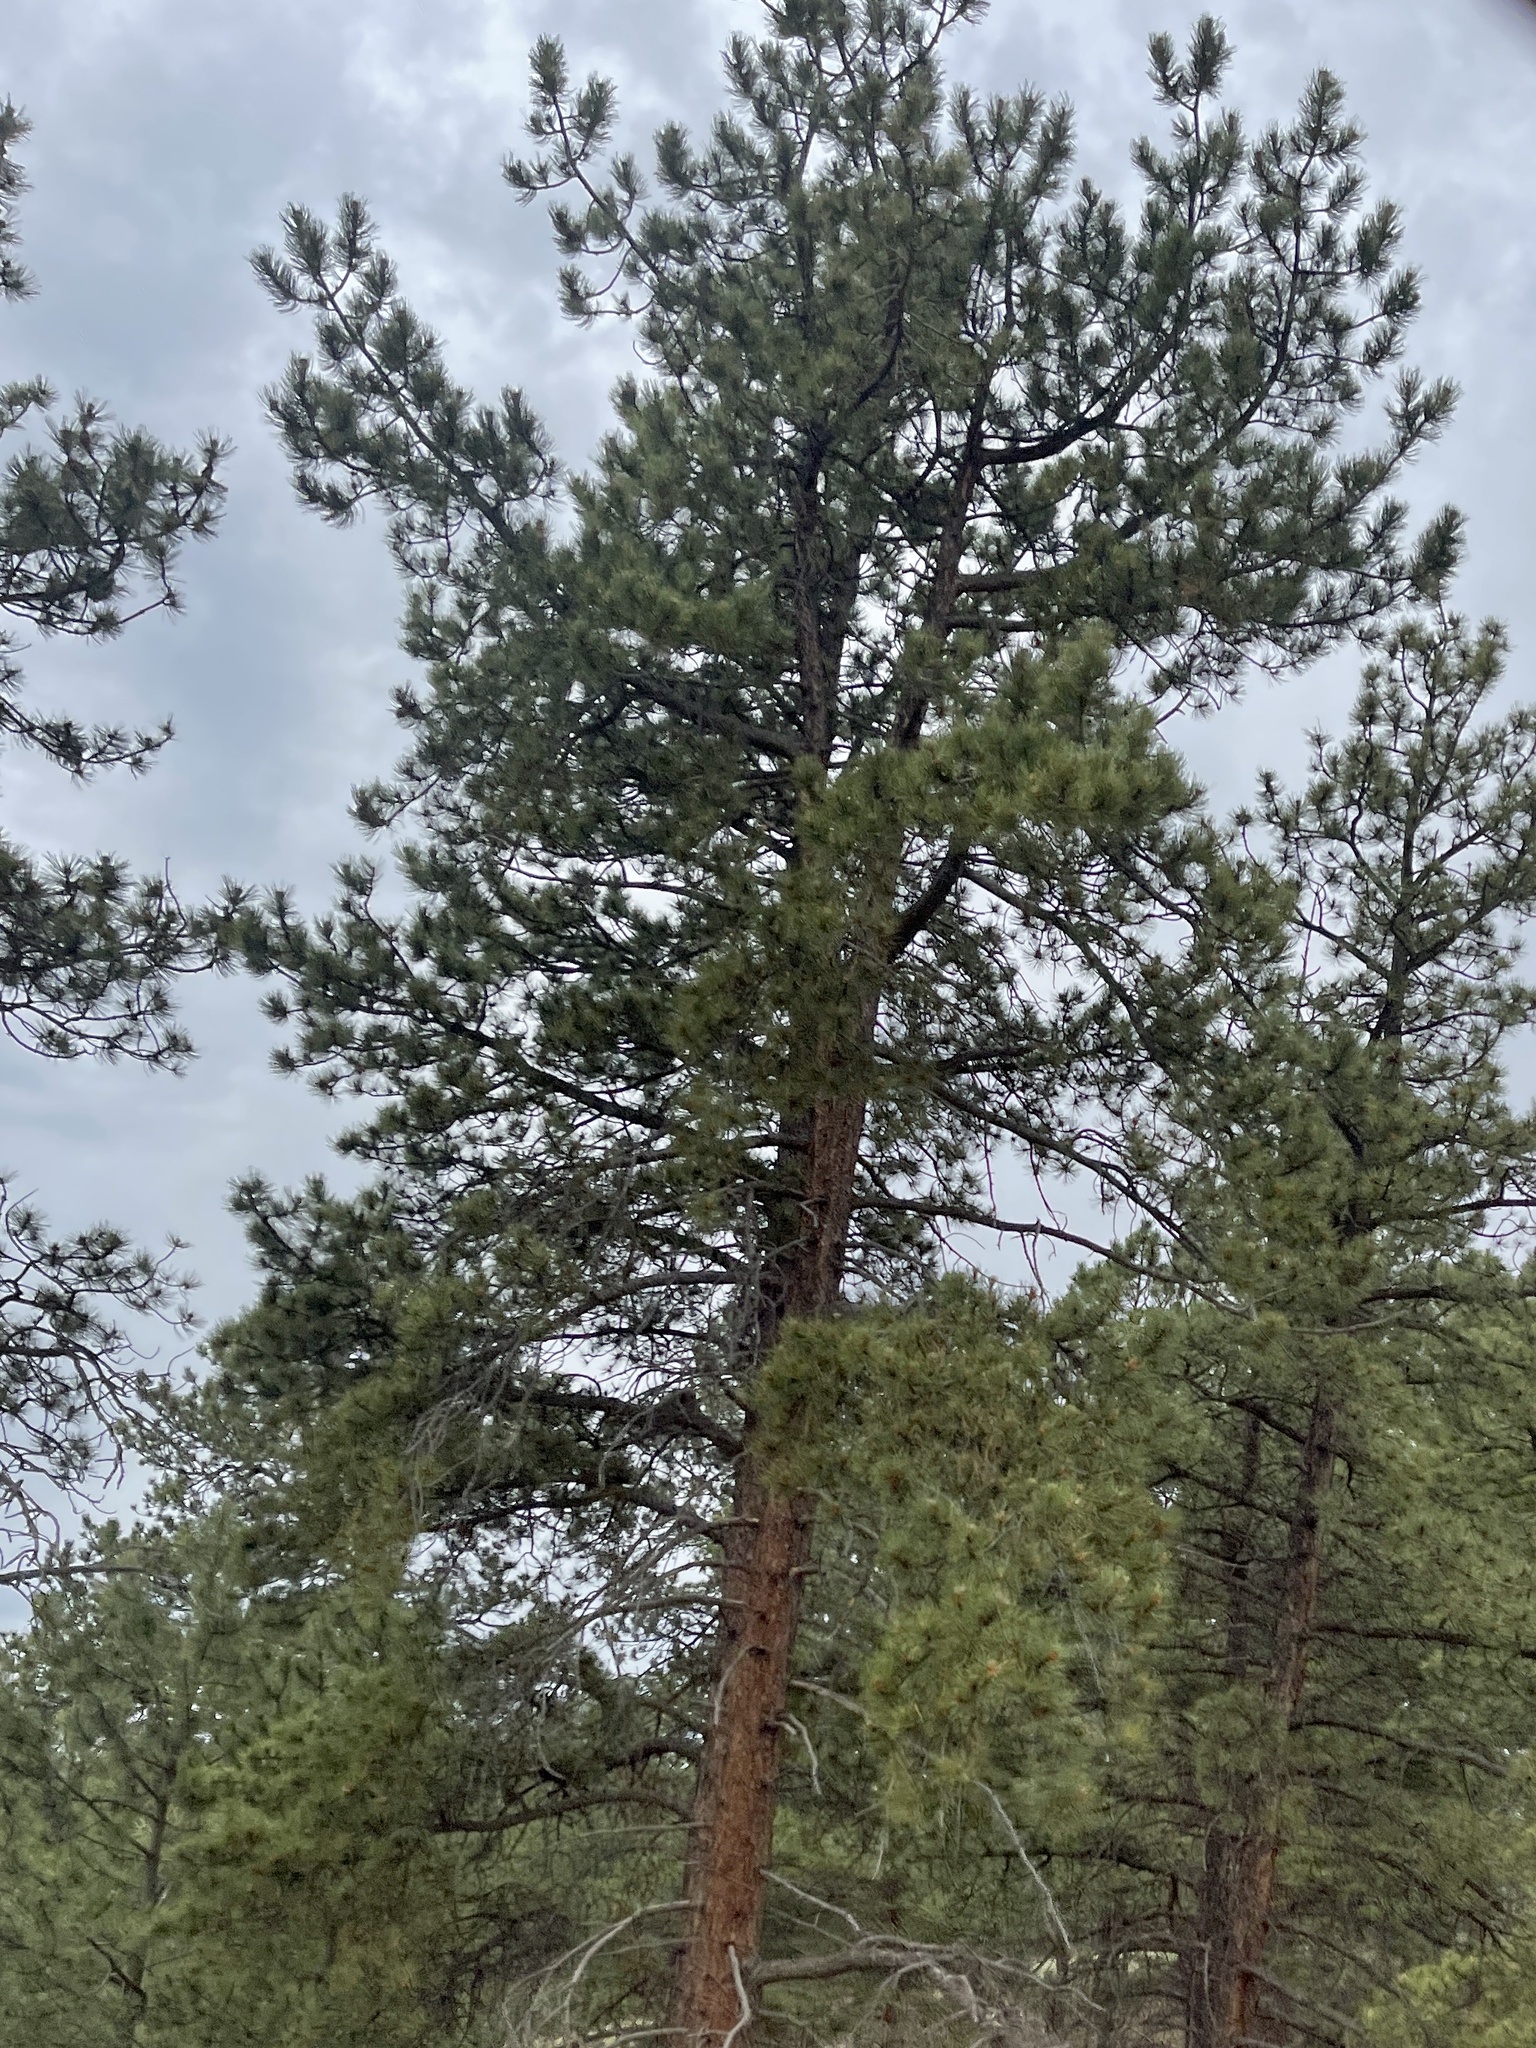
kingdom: Plantae
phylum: Tracheophyta
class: Pinopsida
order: Pinales
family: Pinaceae
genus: Pinus
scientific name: Pinus ponderosa
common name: Western yellow-pine
